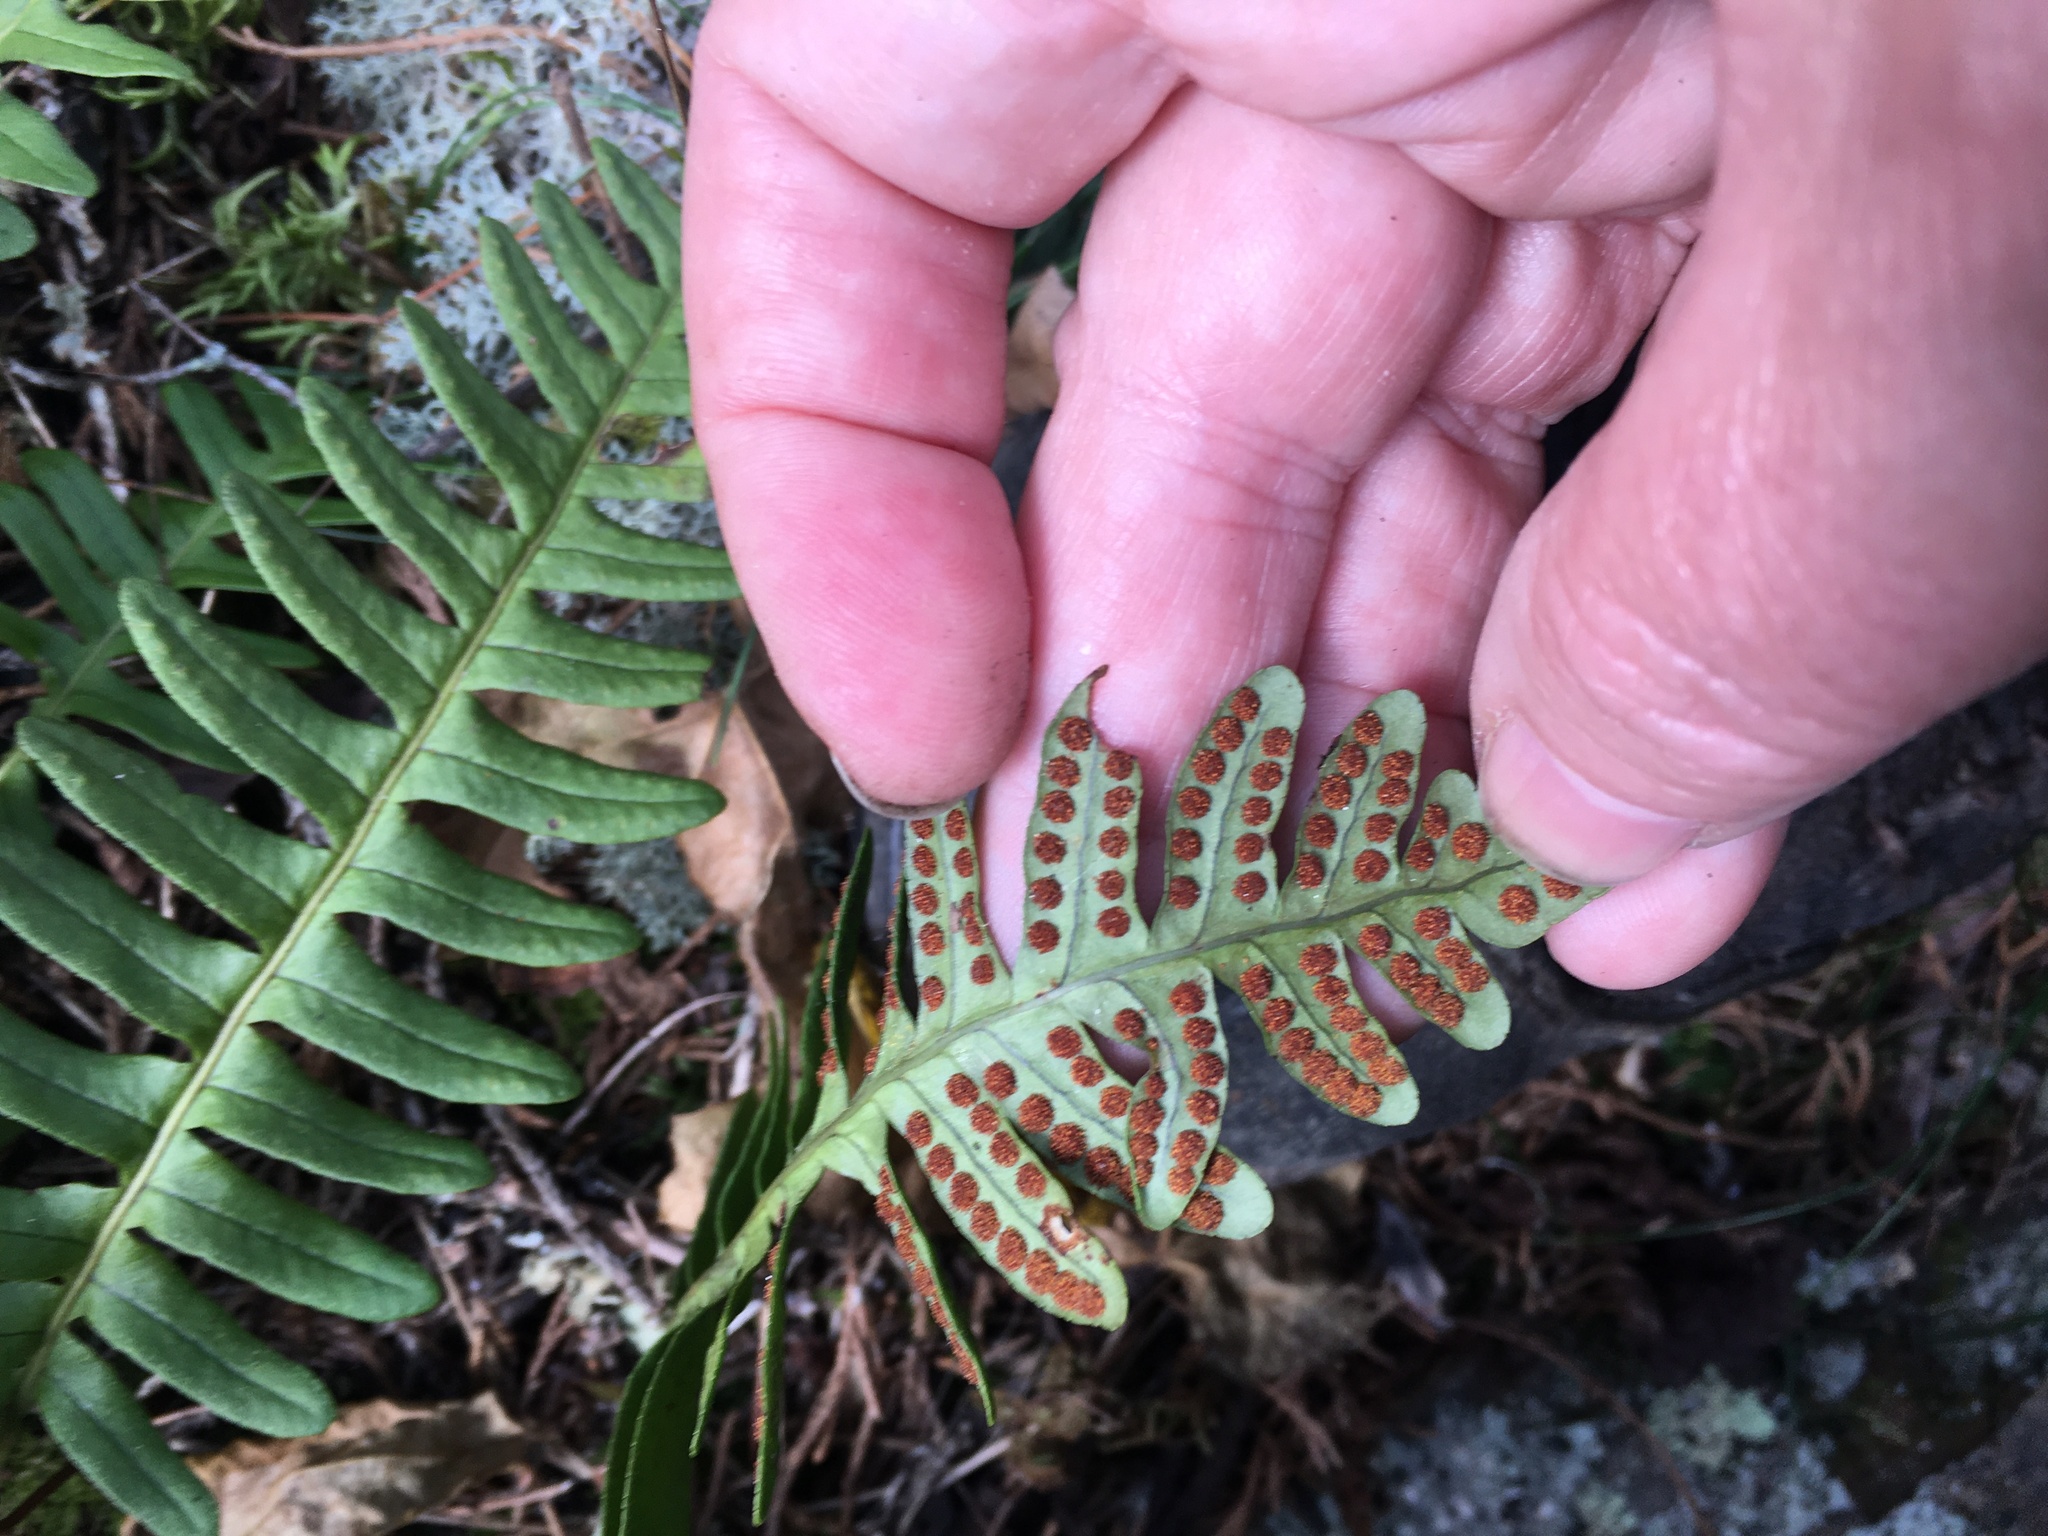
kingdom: Plantae
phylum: Tracheophyta
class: Polypodiopsida
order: Polypodiales
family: Polypodiaceae
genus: Polypodium
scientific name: Polypodium virginianum
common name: American wall fern
